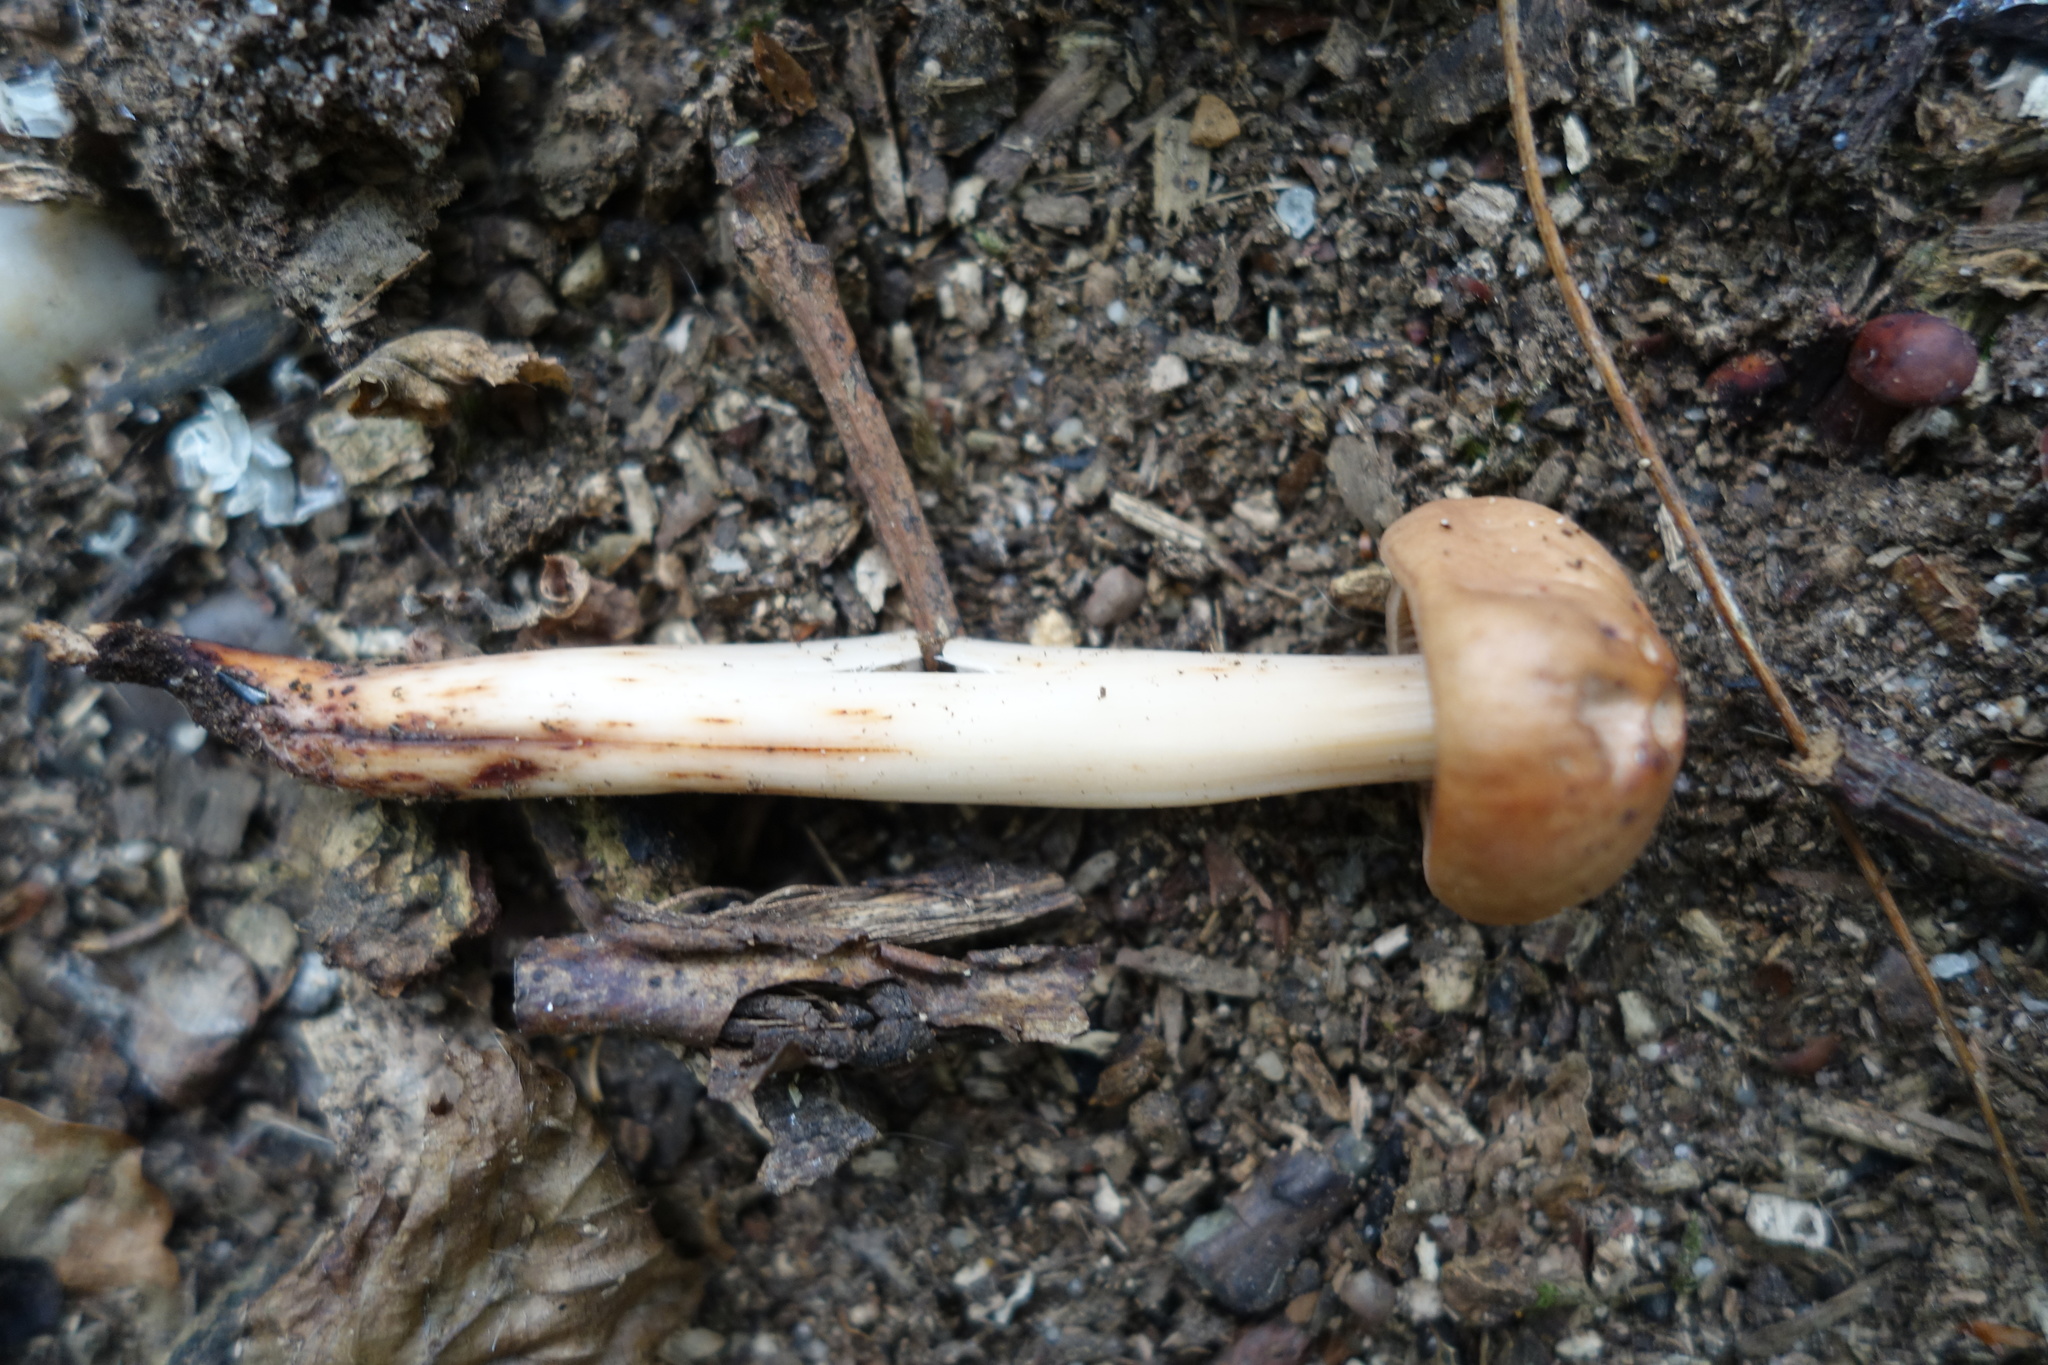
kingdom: Fungi
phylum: Basidiomycota
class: Agaricomycetes
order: Agaricales
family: Omphalotaceae
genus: Gymnopus
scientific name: Gymnopus fusipes
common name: Spindle shank
